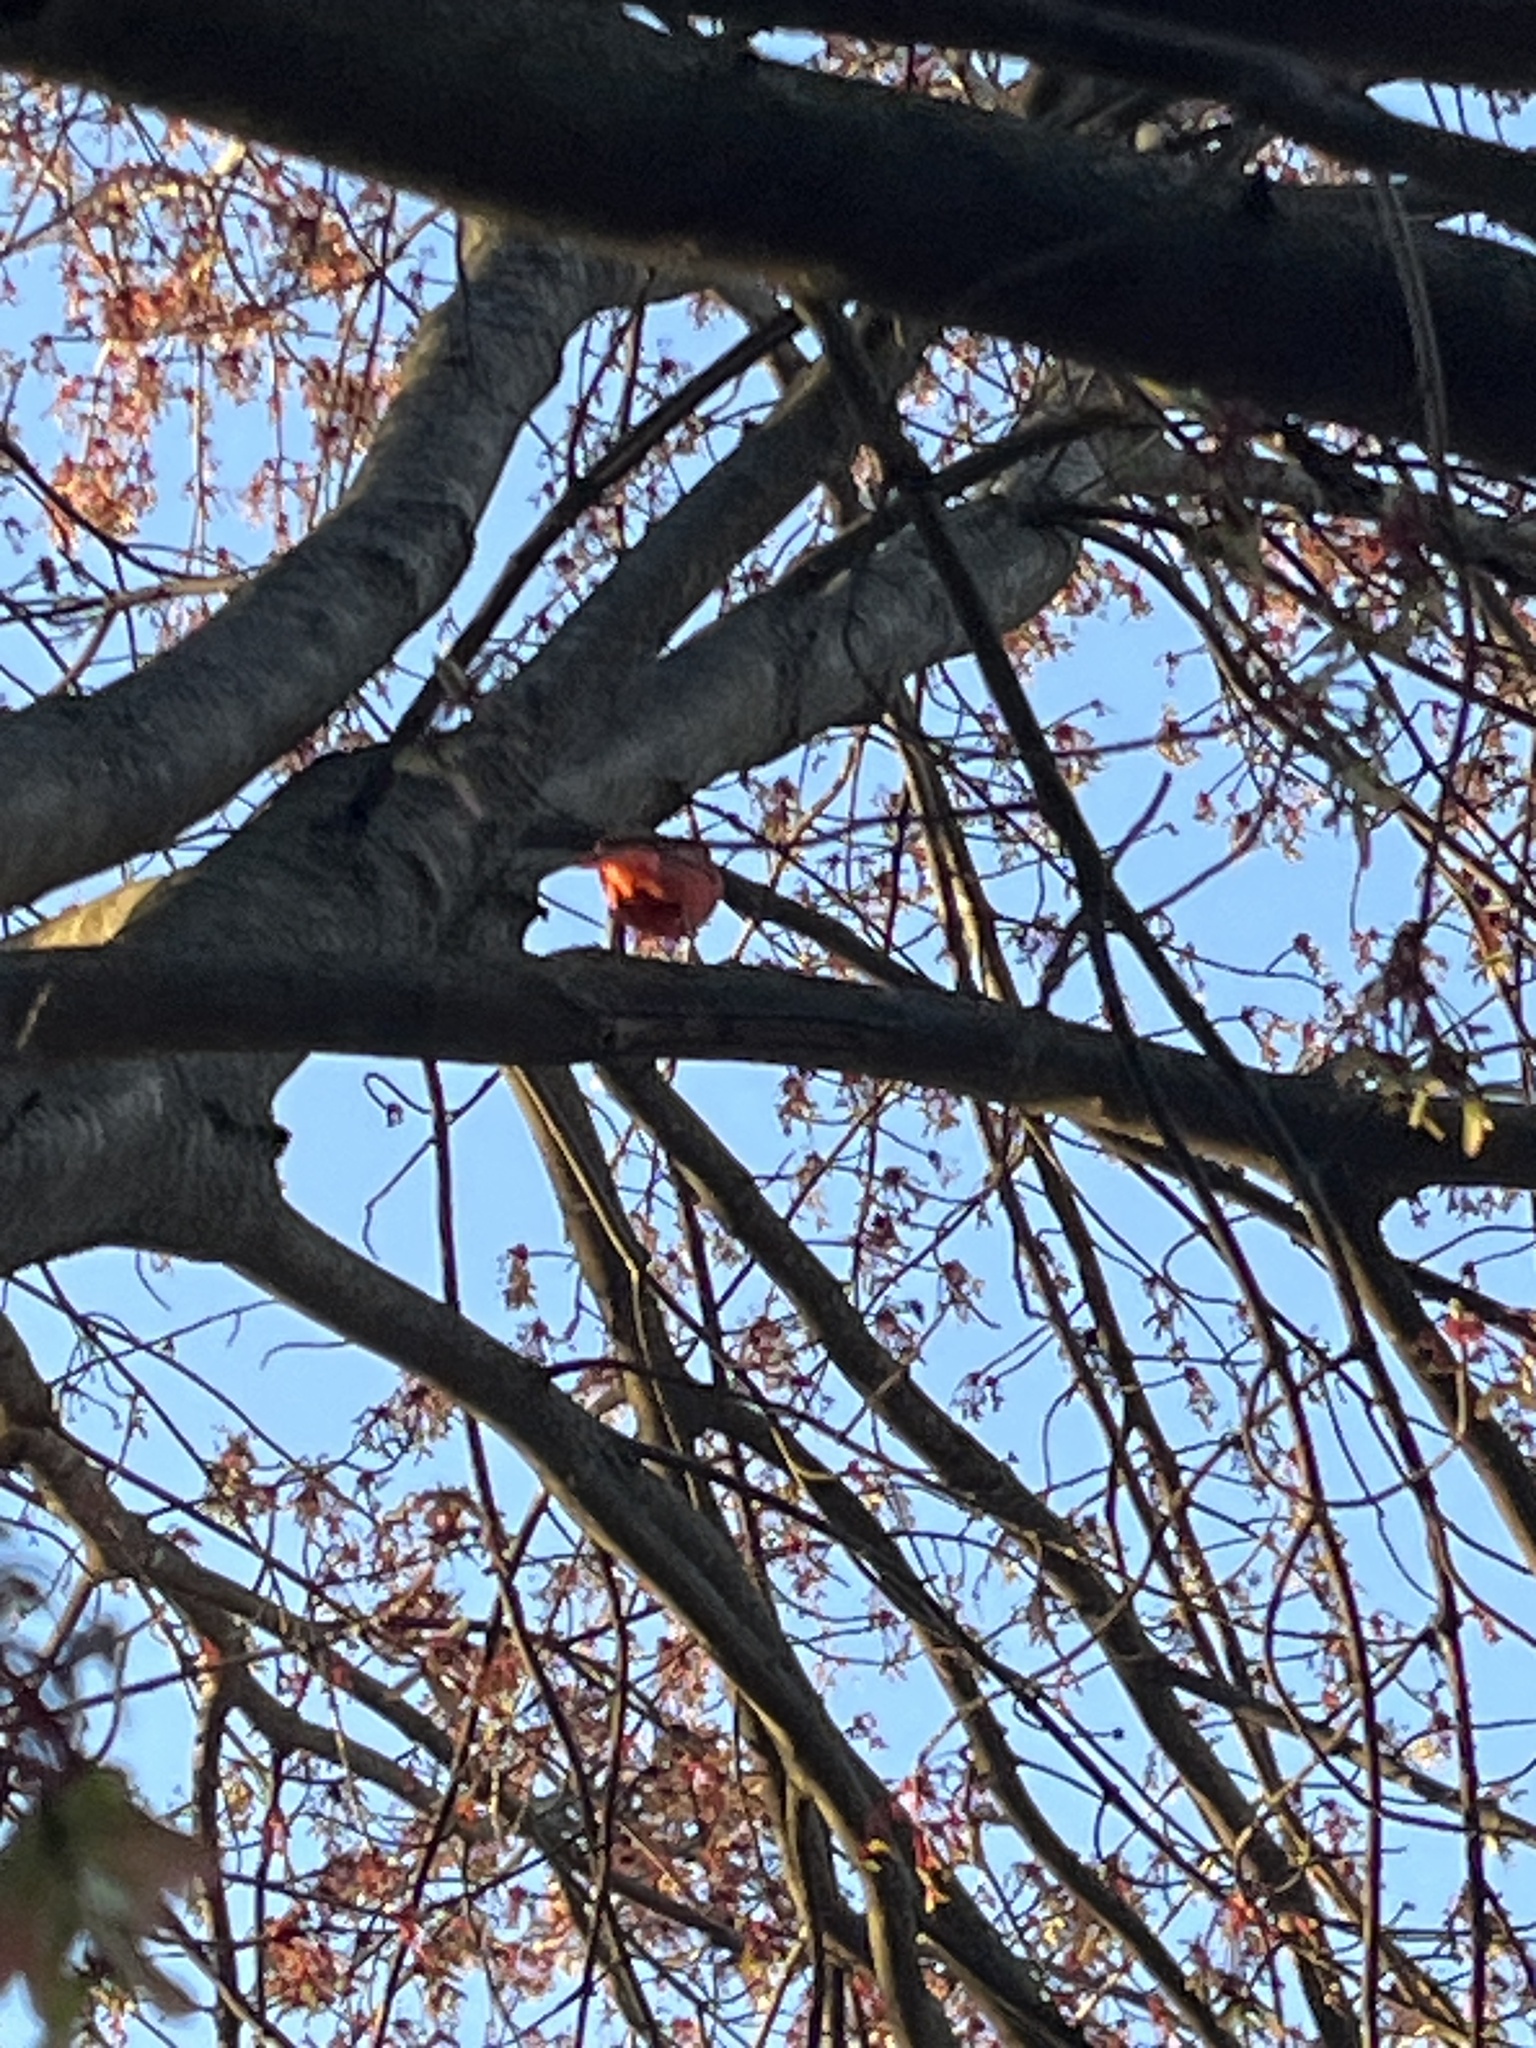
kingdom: Animalia
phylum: Chordata
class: Aves
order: Passeriformes
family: Cardinalidae
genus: Cardinalis
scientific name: Cardinalis cardinalis
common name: Northern cardinal
